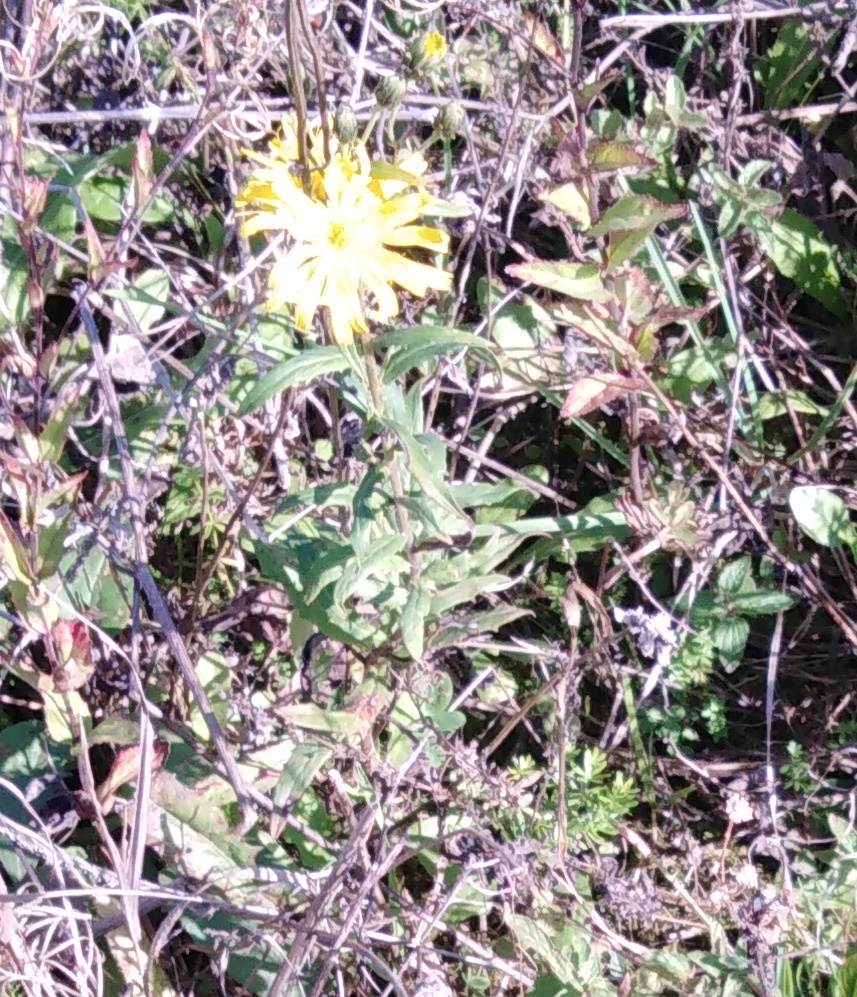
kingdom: Plantae
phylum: Tracheophyta
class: Magnoliopsida
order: Asterales
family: Asteraceae
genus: Hieracium
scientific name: Hieracium umbellatum
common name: Northern hawkweed
